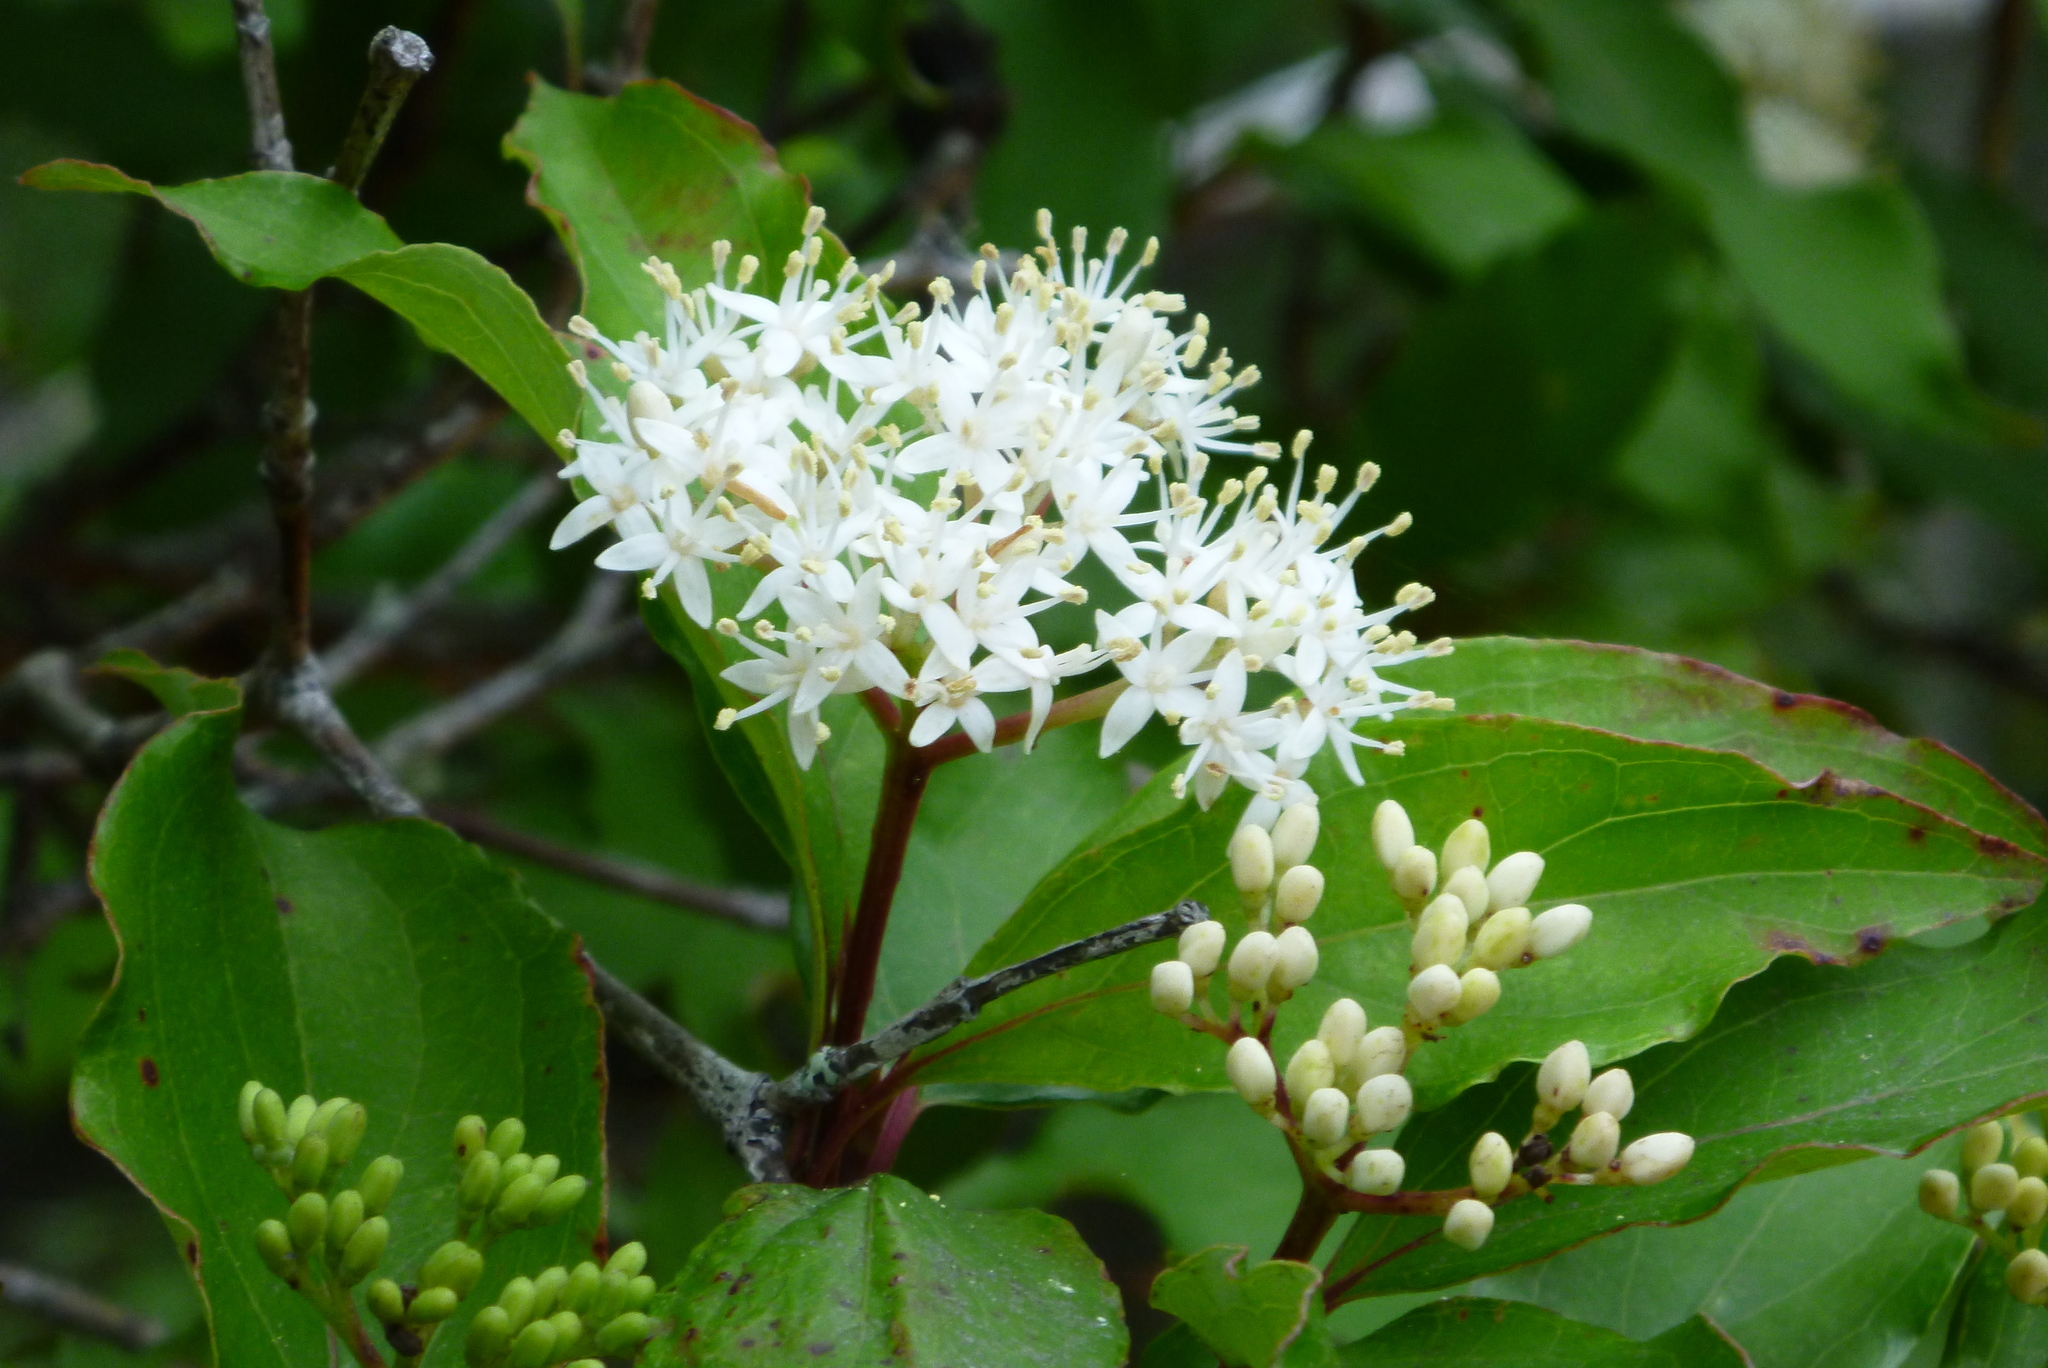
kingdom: Plantae
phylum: Tracheophyta
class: Magnoliopsida
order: Cornales
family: Cornaceae
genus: Cornus
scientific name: Cornus foemina
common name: Swamp dogwood
